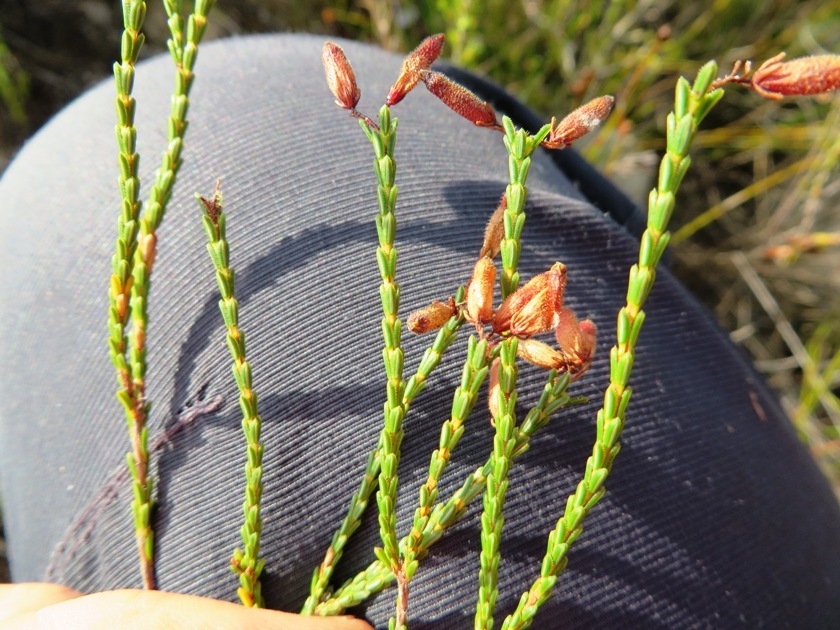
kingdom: Plantae
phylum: Tracheophyta
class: Magnoliopsida
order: Ericales
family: Ericaceae
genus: Erica
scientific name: Erica cristata
